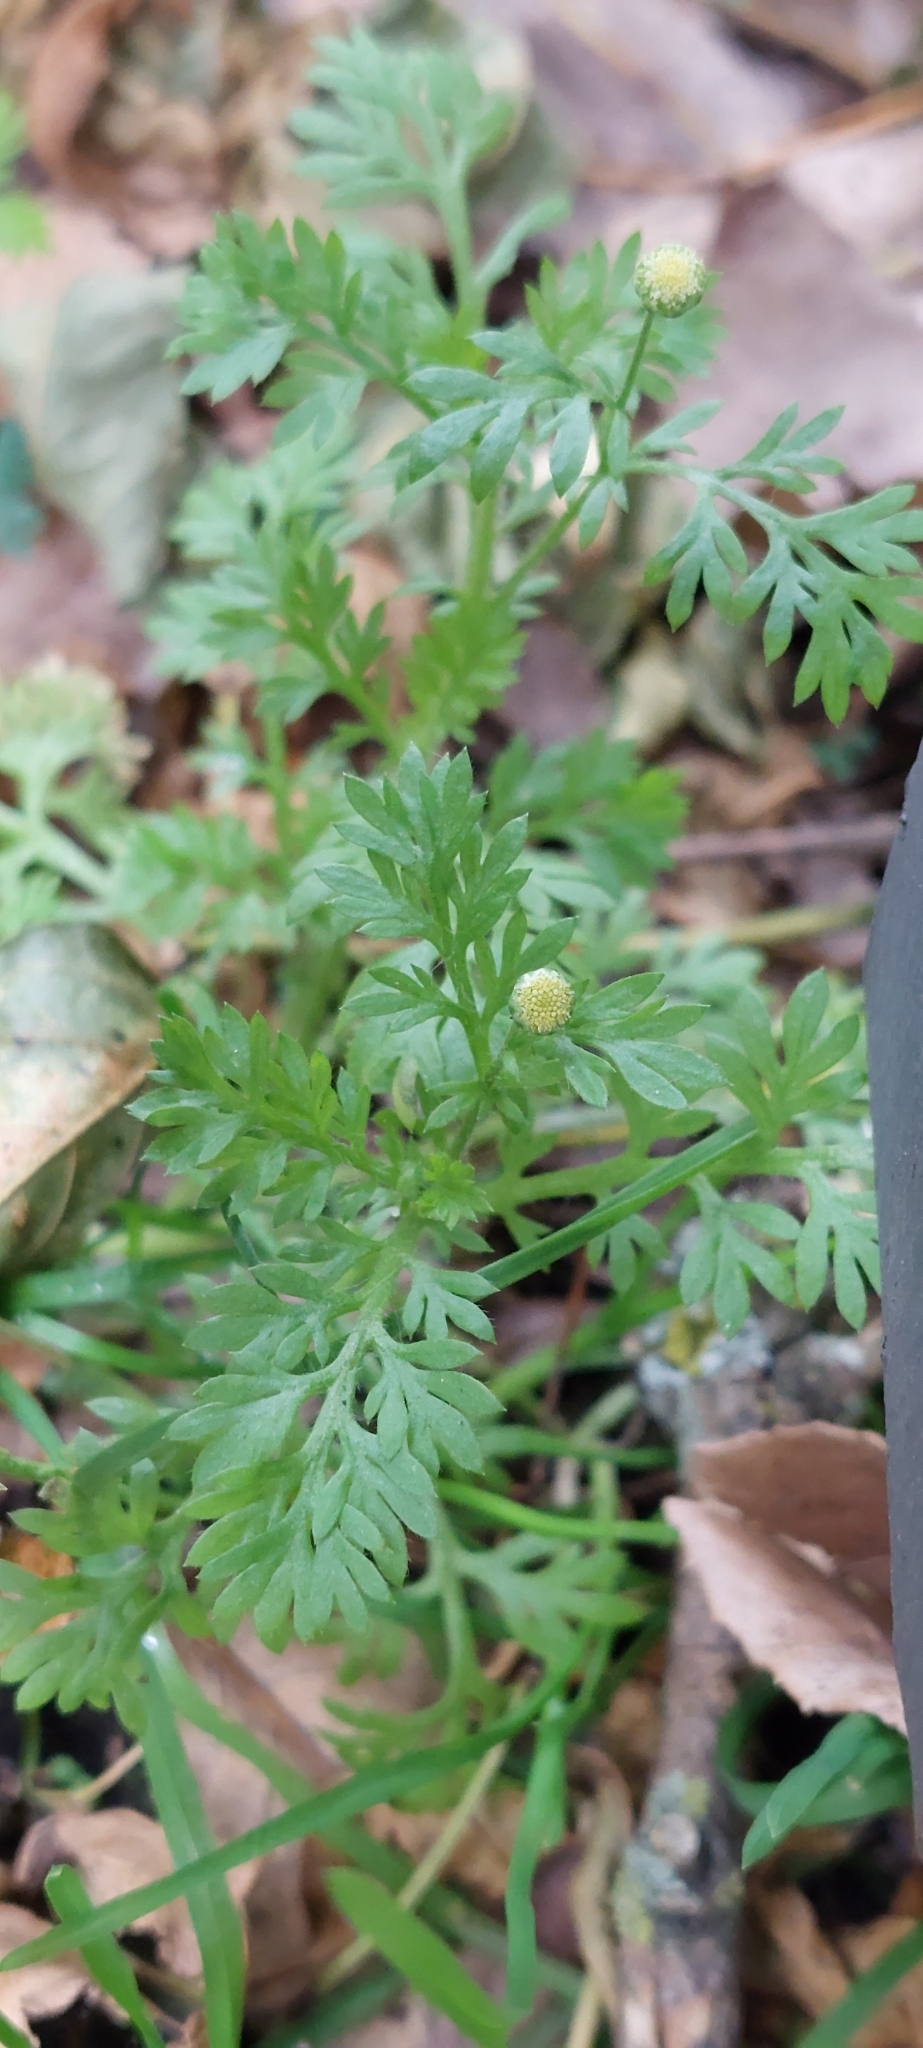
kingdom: Plantae
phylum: Tracheophyta
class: Magnoliopsida
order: Asterales
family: Asteraceae
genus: Cotula
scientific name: Cotula australis
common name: Australian waterbuttons
